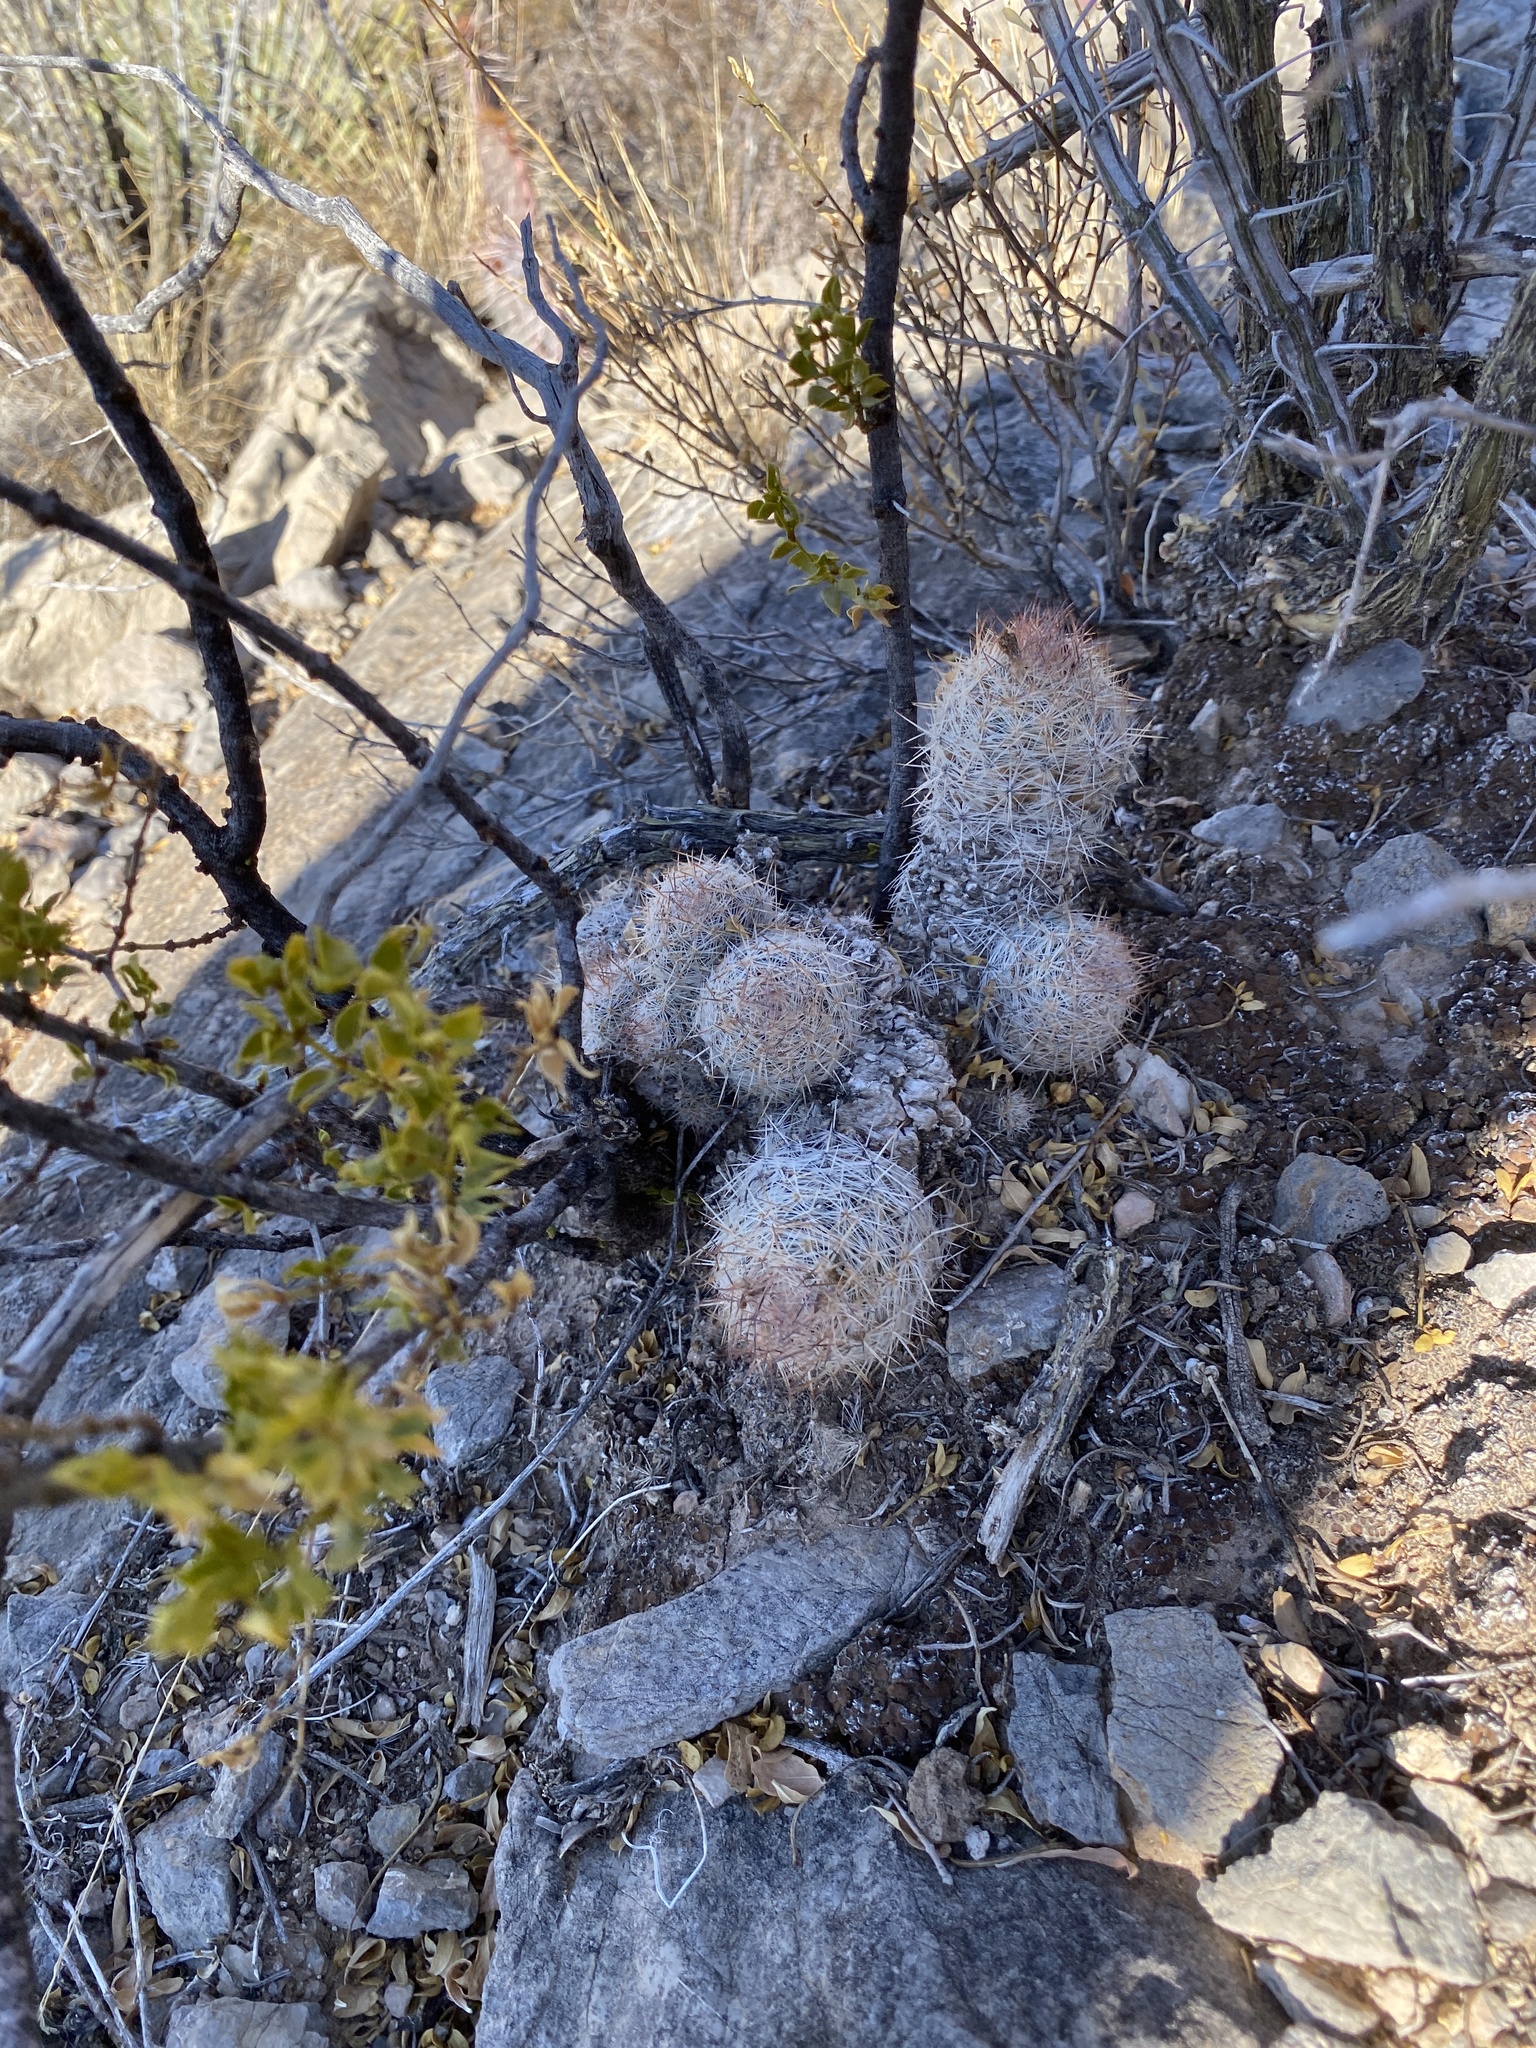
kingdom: Plantae
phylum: Tracheophyta
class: Magnoliopsida
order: Caryophyllales
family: Cactaceae
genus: Pelecyphora
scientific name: Pelecyphora tuberculosa
